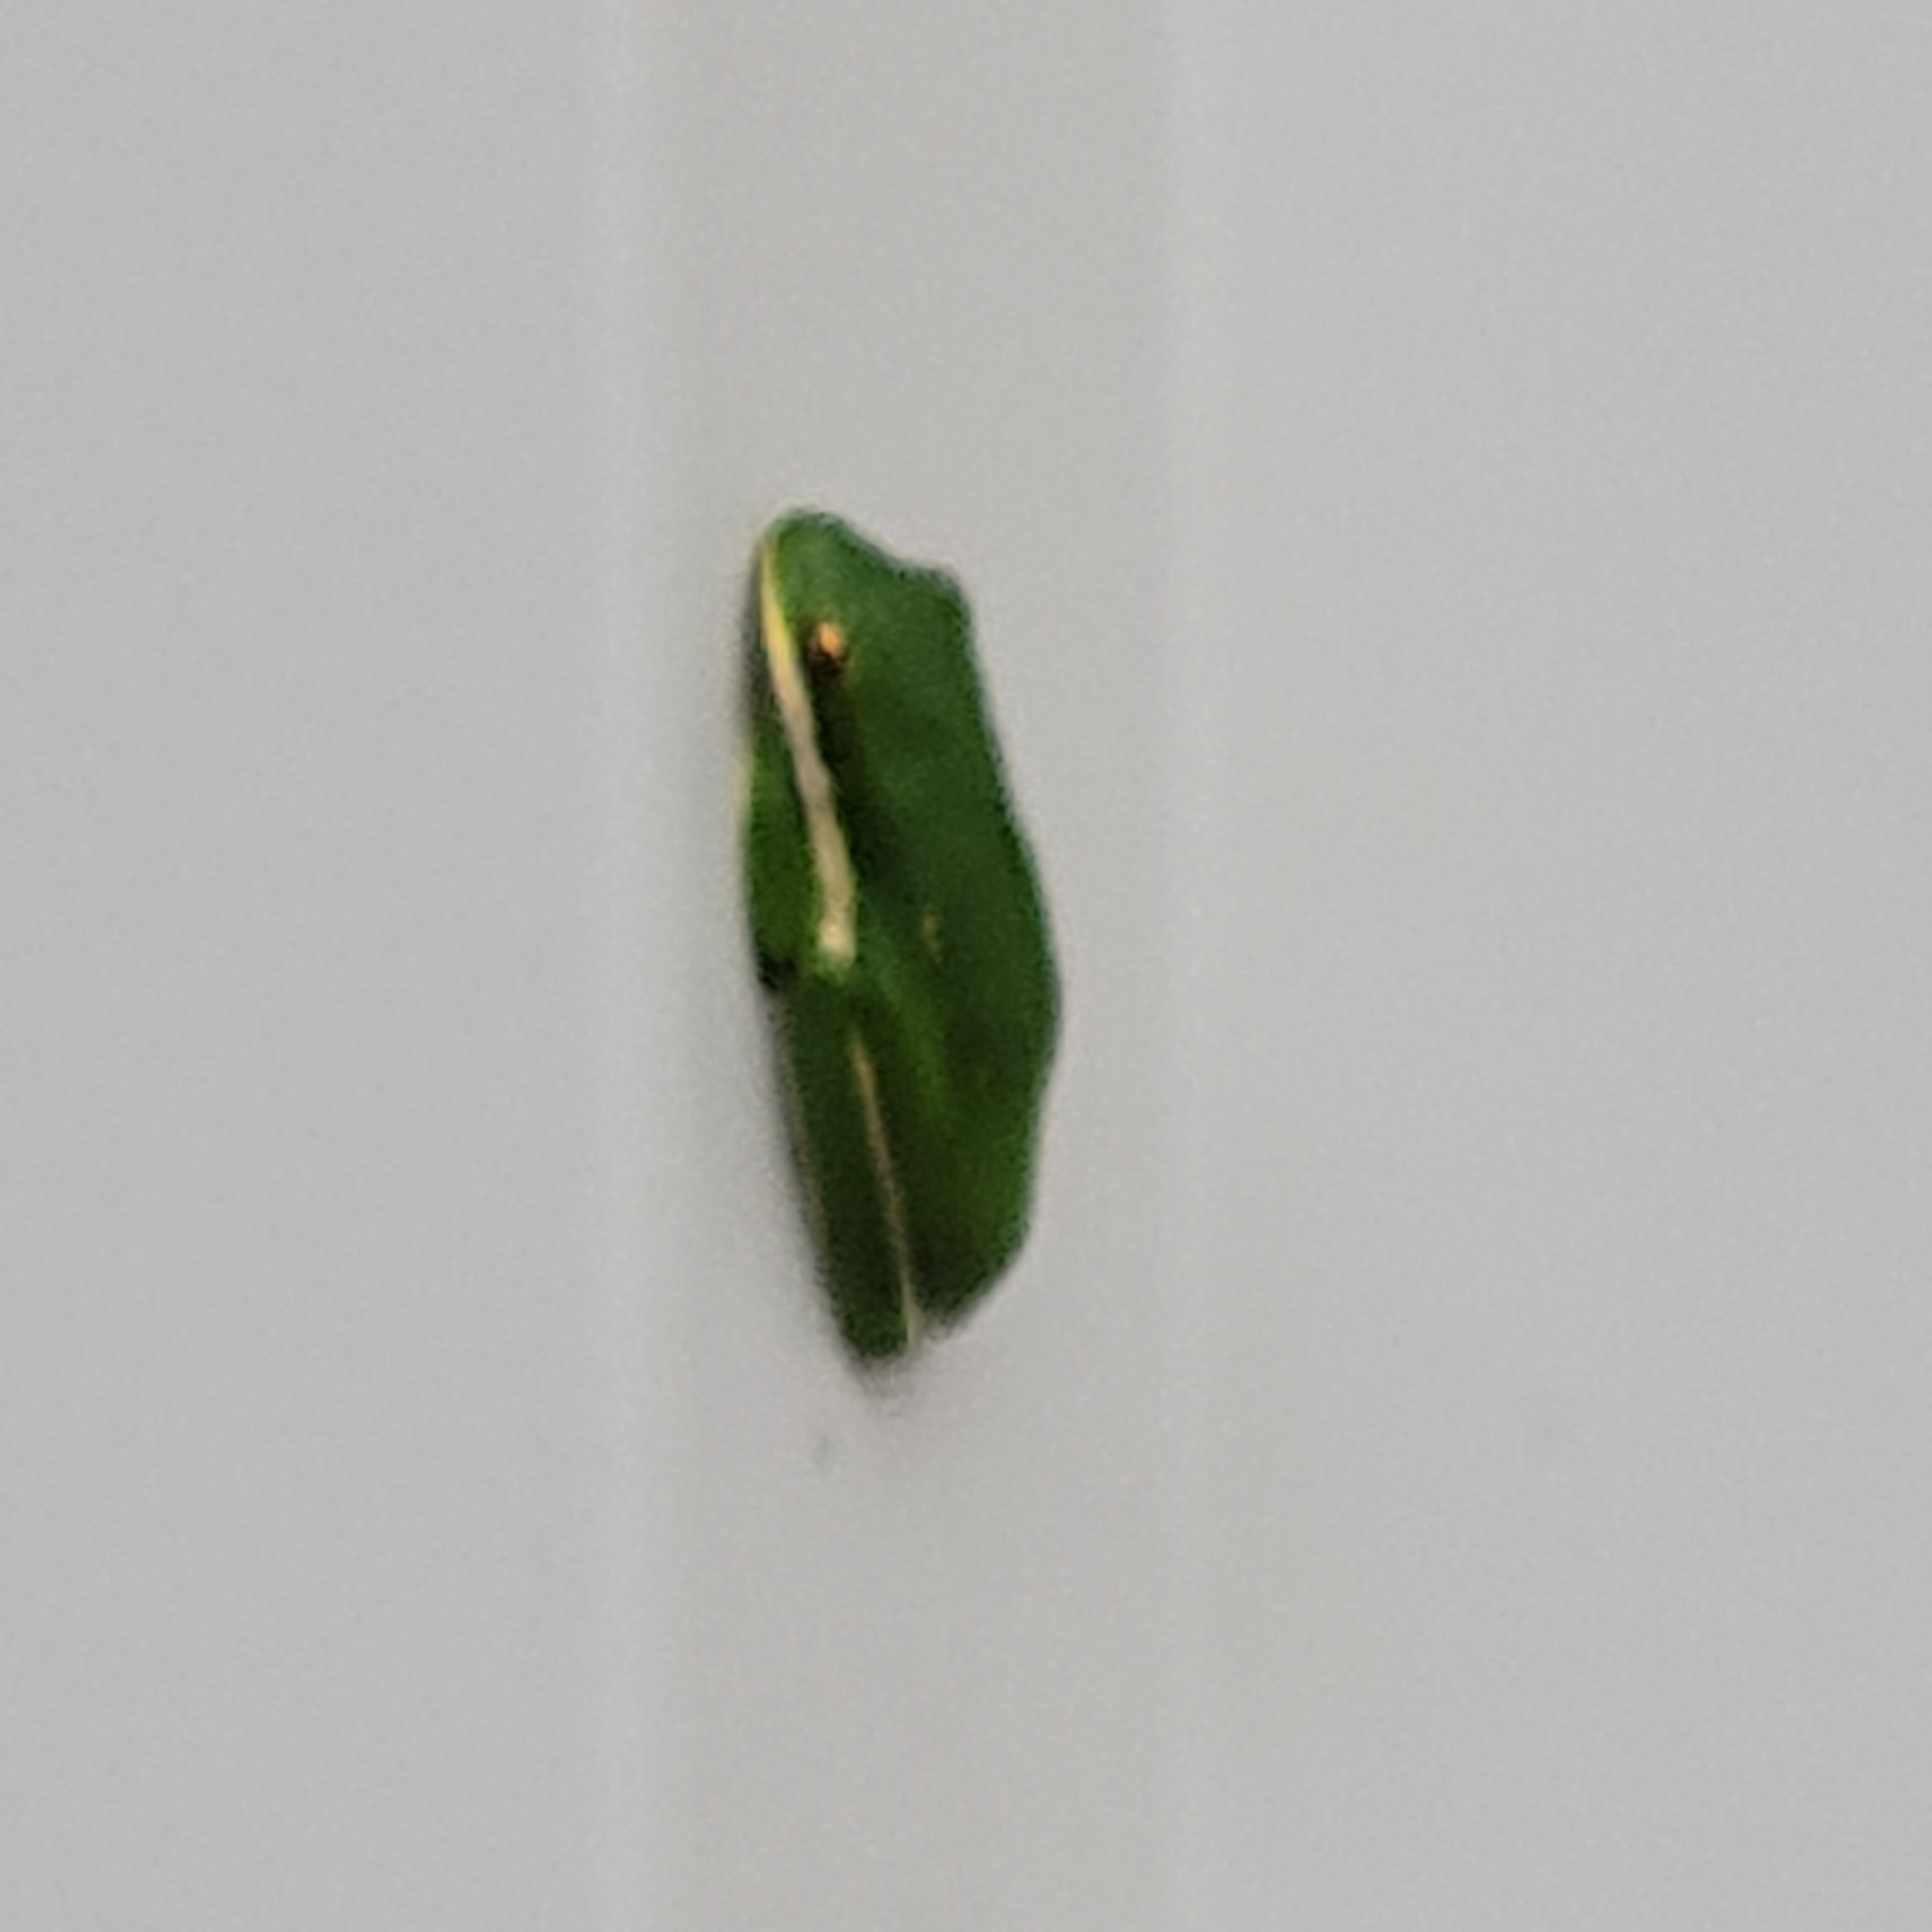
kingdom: Animalia
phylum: Chordata
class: Amphibia
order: Anura
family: Hylidae
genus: Dryophytes
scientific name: Dryophytes cinereus
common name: Green treefrog
